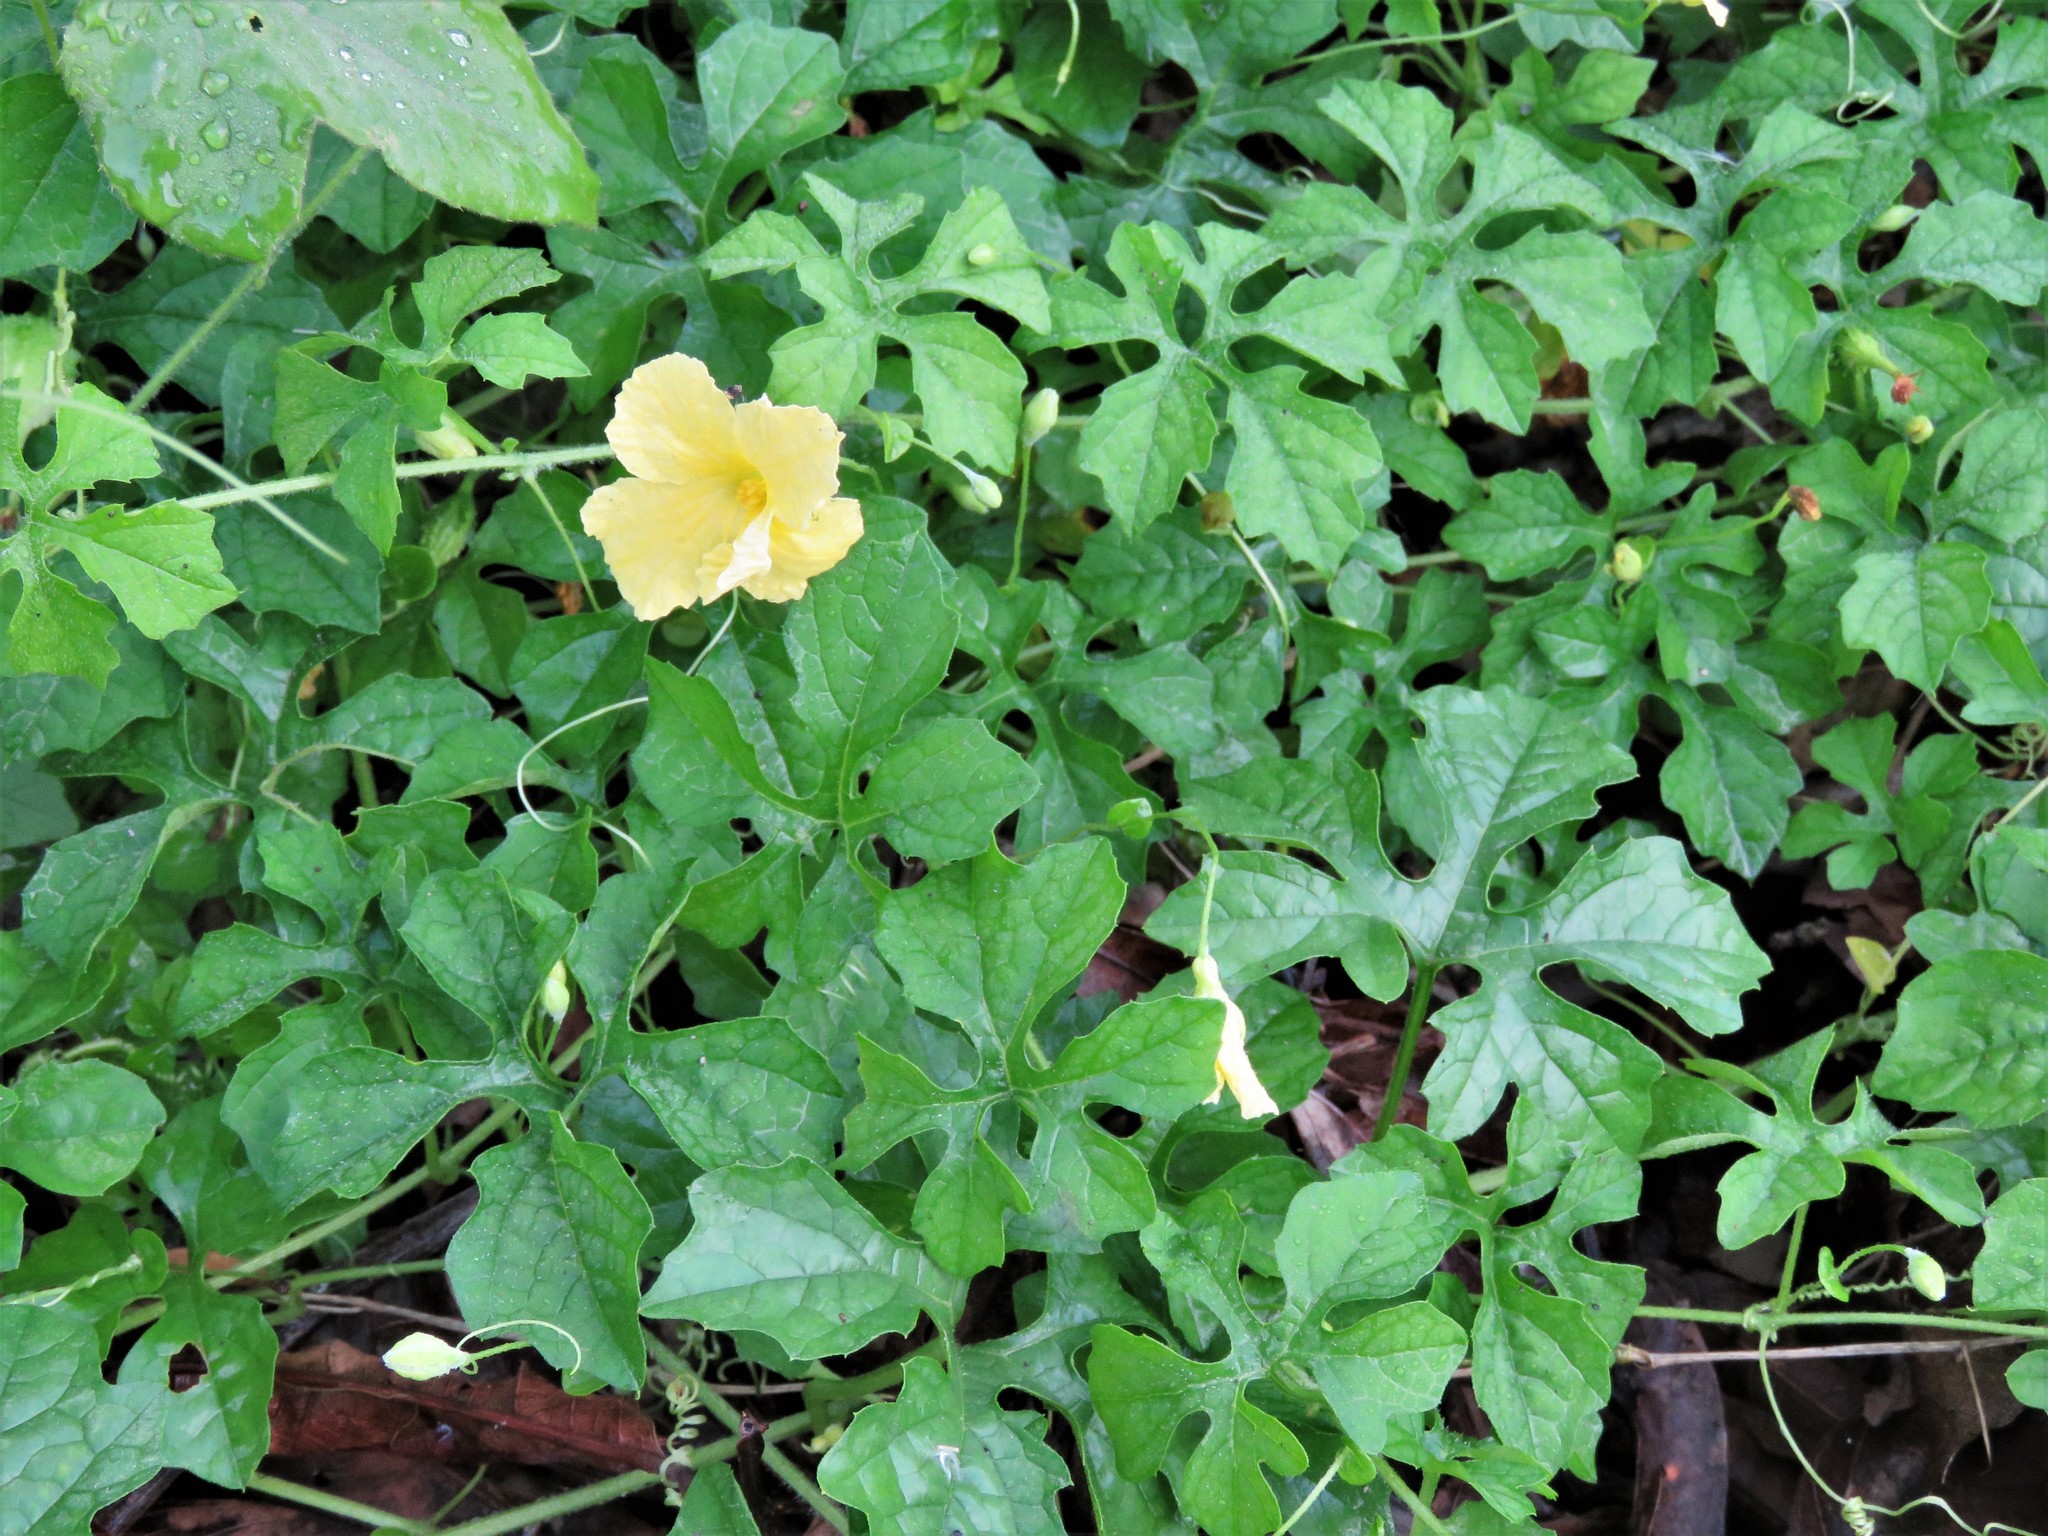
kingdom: Plantae
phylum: Tracheophyta
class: Magnoliopsida
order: Cucurbitales
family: Cucurbitaceae
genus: Momordica
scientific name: Momordica charantia
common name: Balsampear
